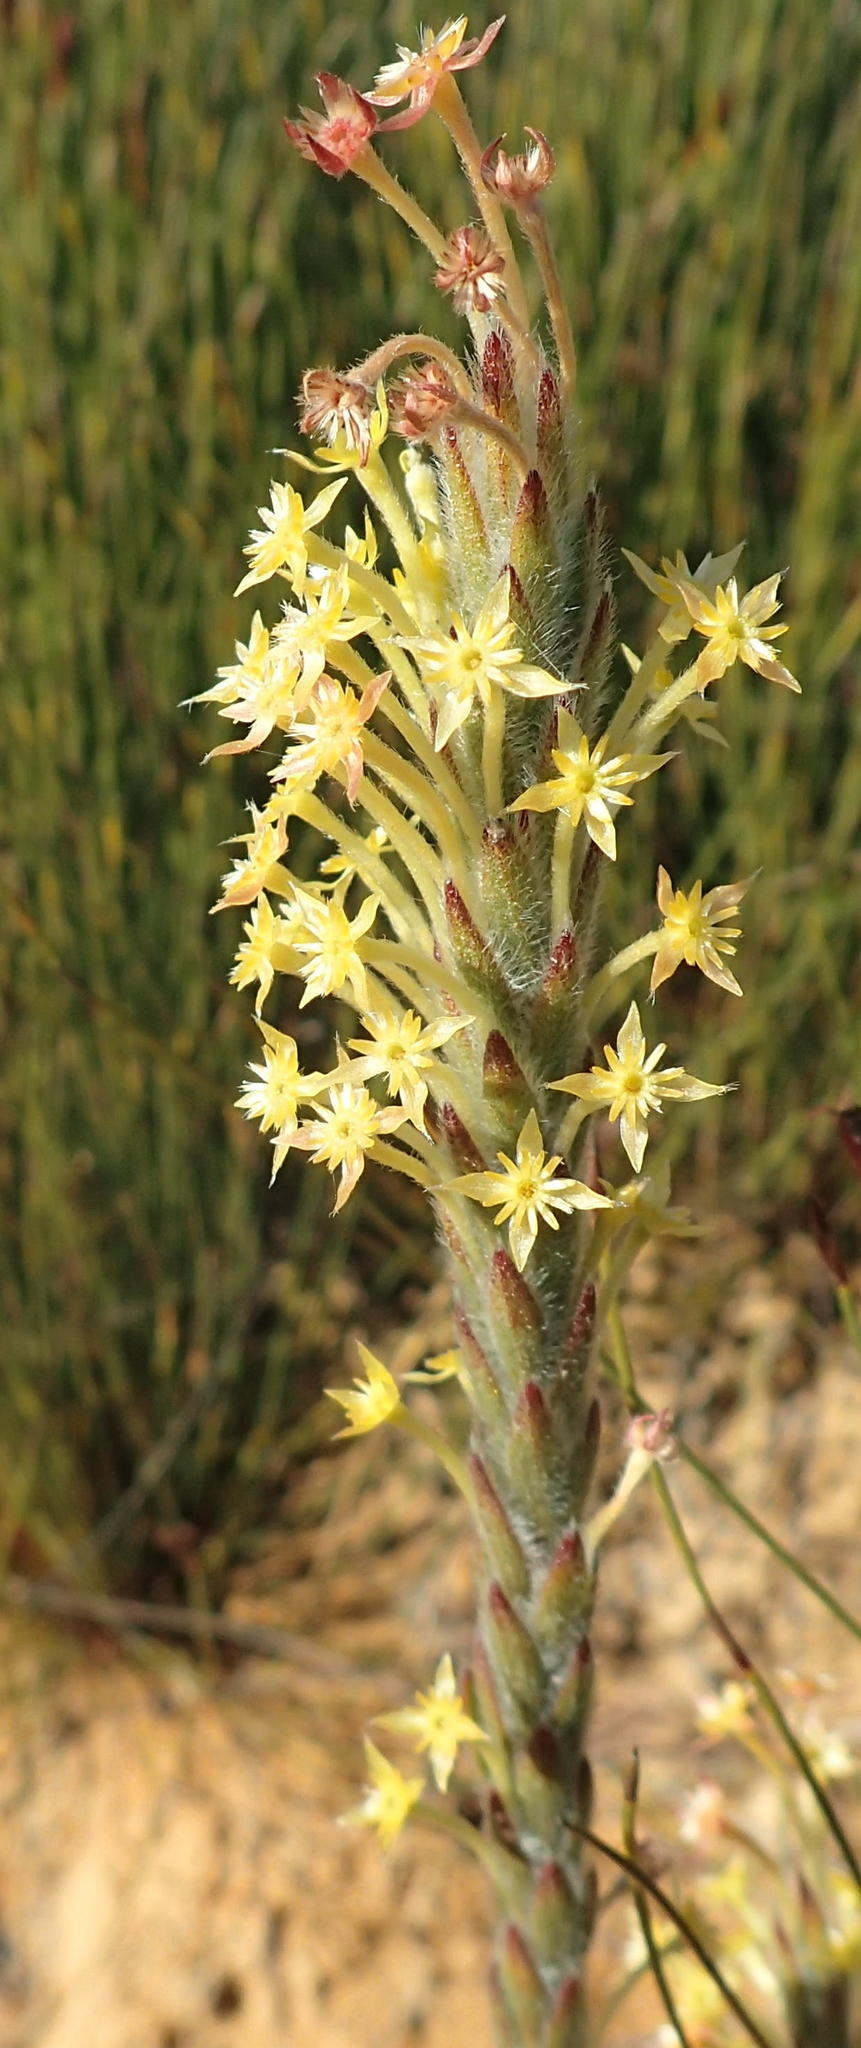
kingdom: Plantae
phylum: Tracheophyta
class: Magnoliopsida
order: Malvales
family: Thymelaeaceae
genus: Struthiola
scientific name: Struthiola tomentosa
